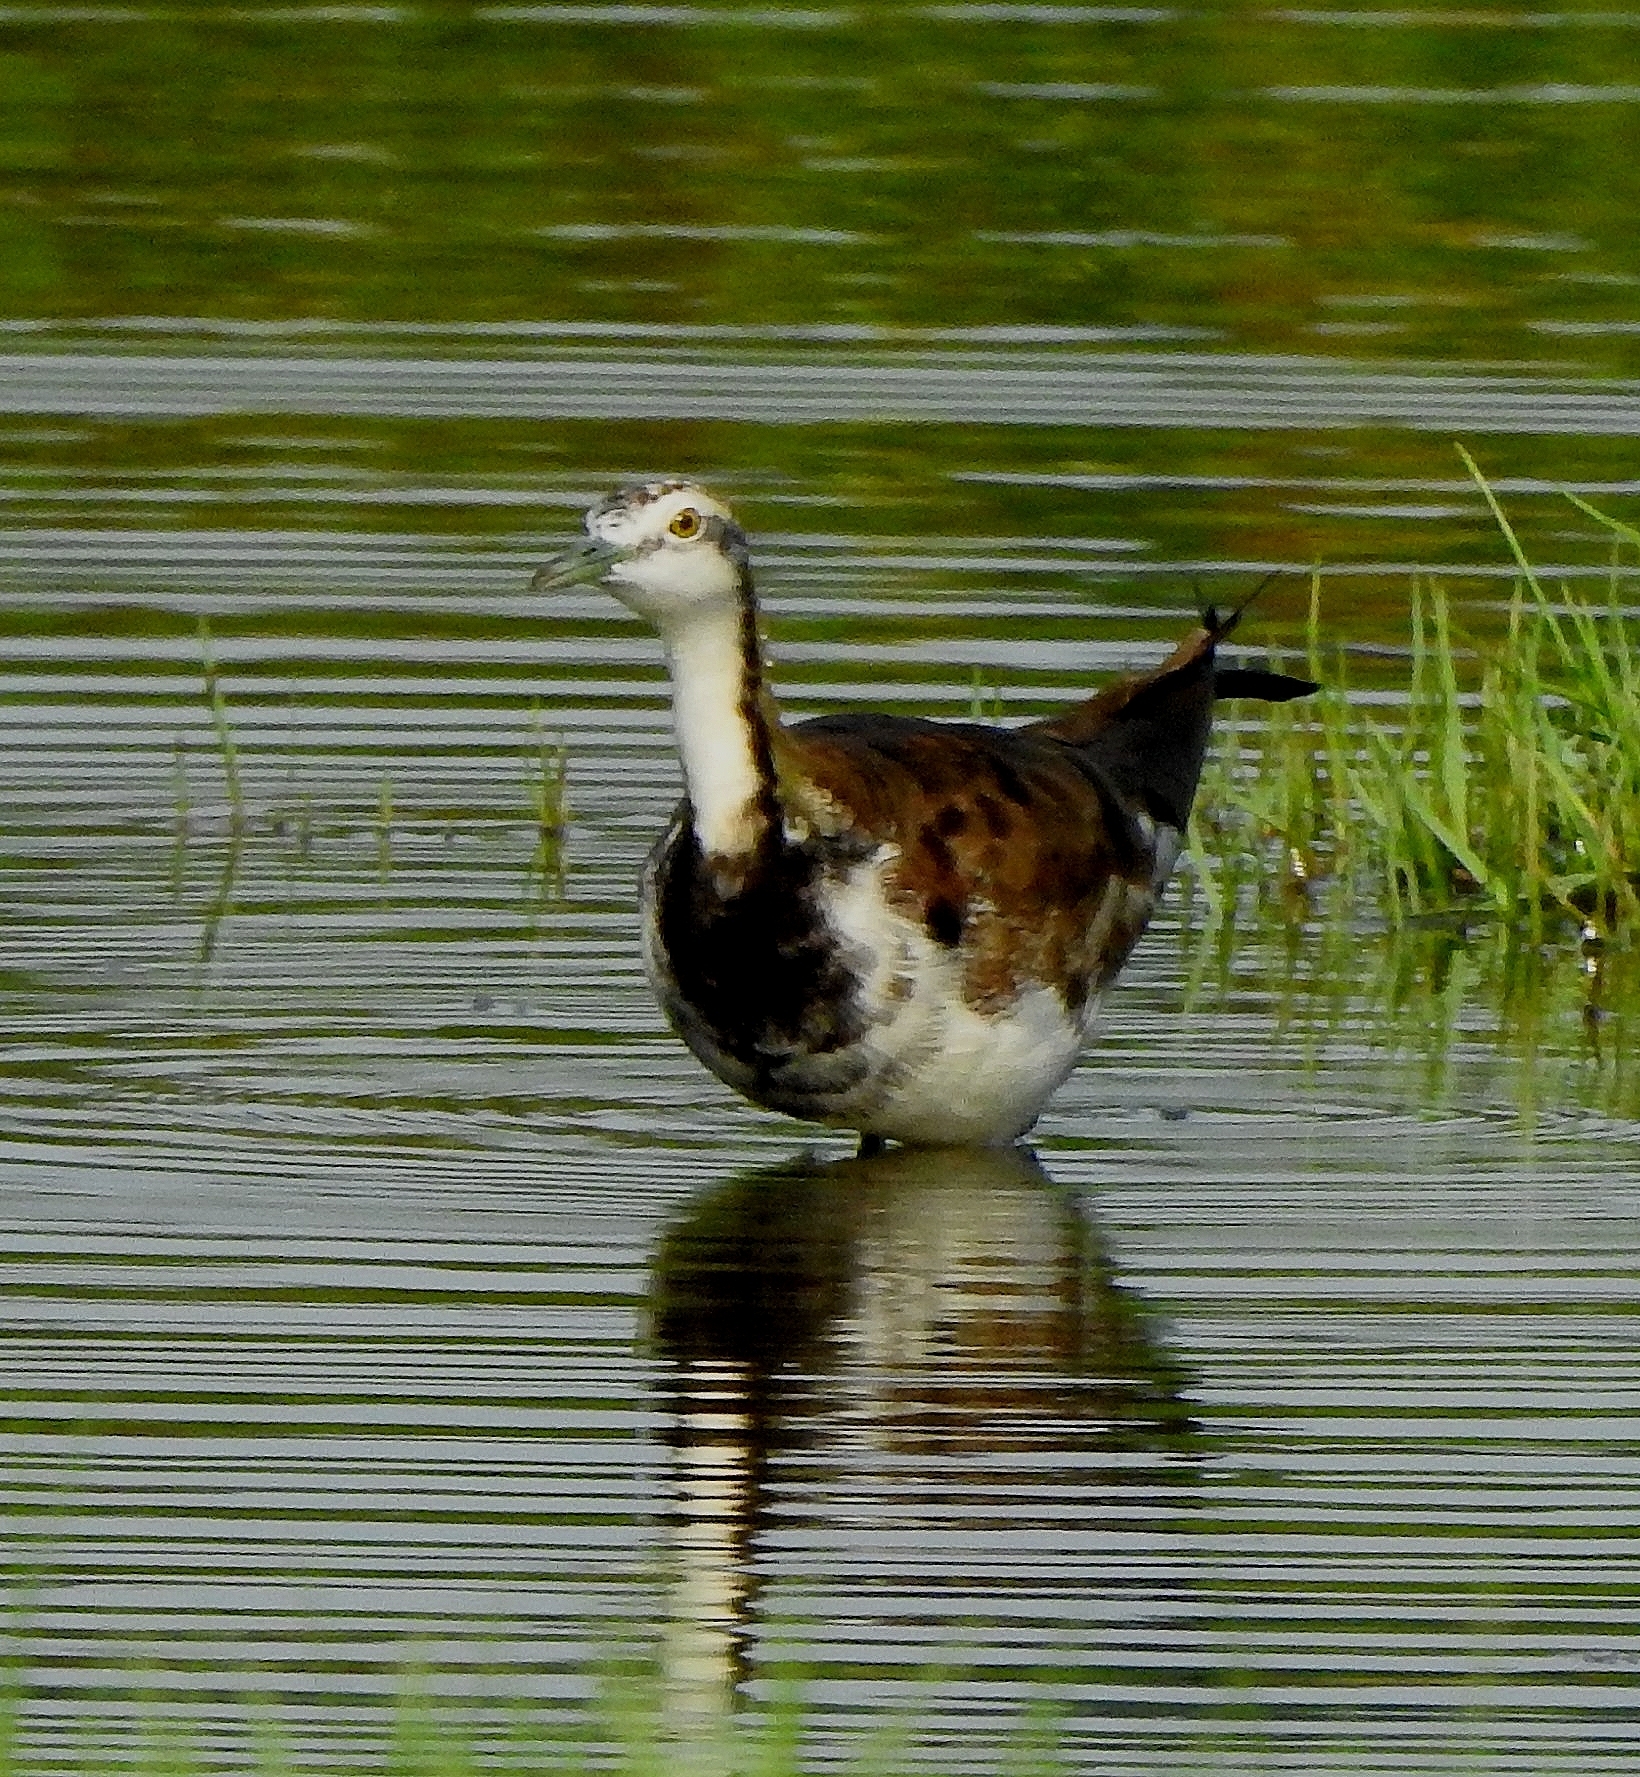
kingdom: Animalia
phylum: Chordata
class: Aves
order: Charadriiformes
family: Jacanidae
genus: Hydrophasianus
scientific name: Hydrophasianus chirurgus
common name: Pheasant-tailed jacana
